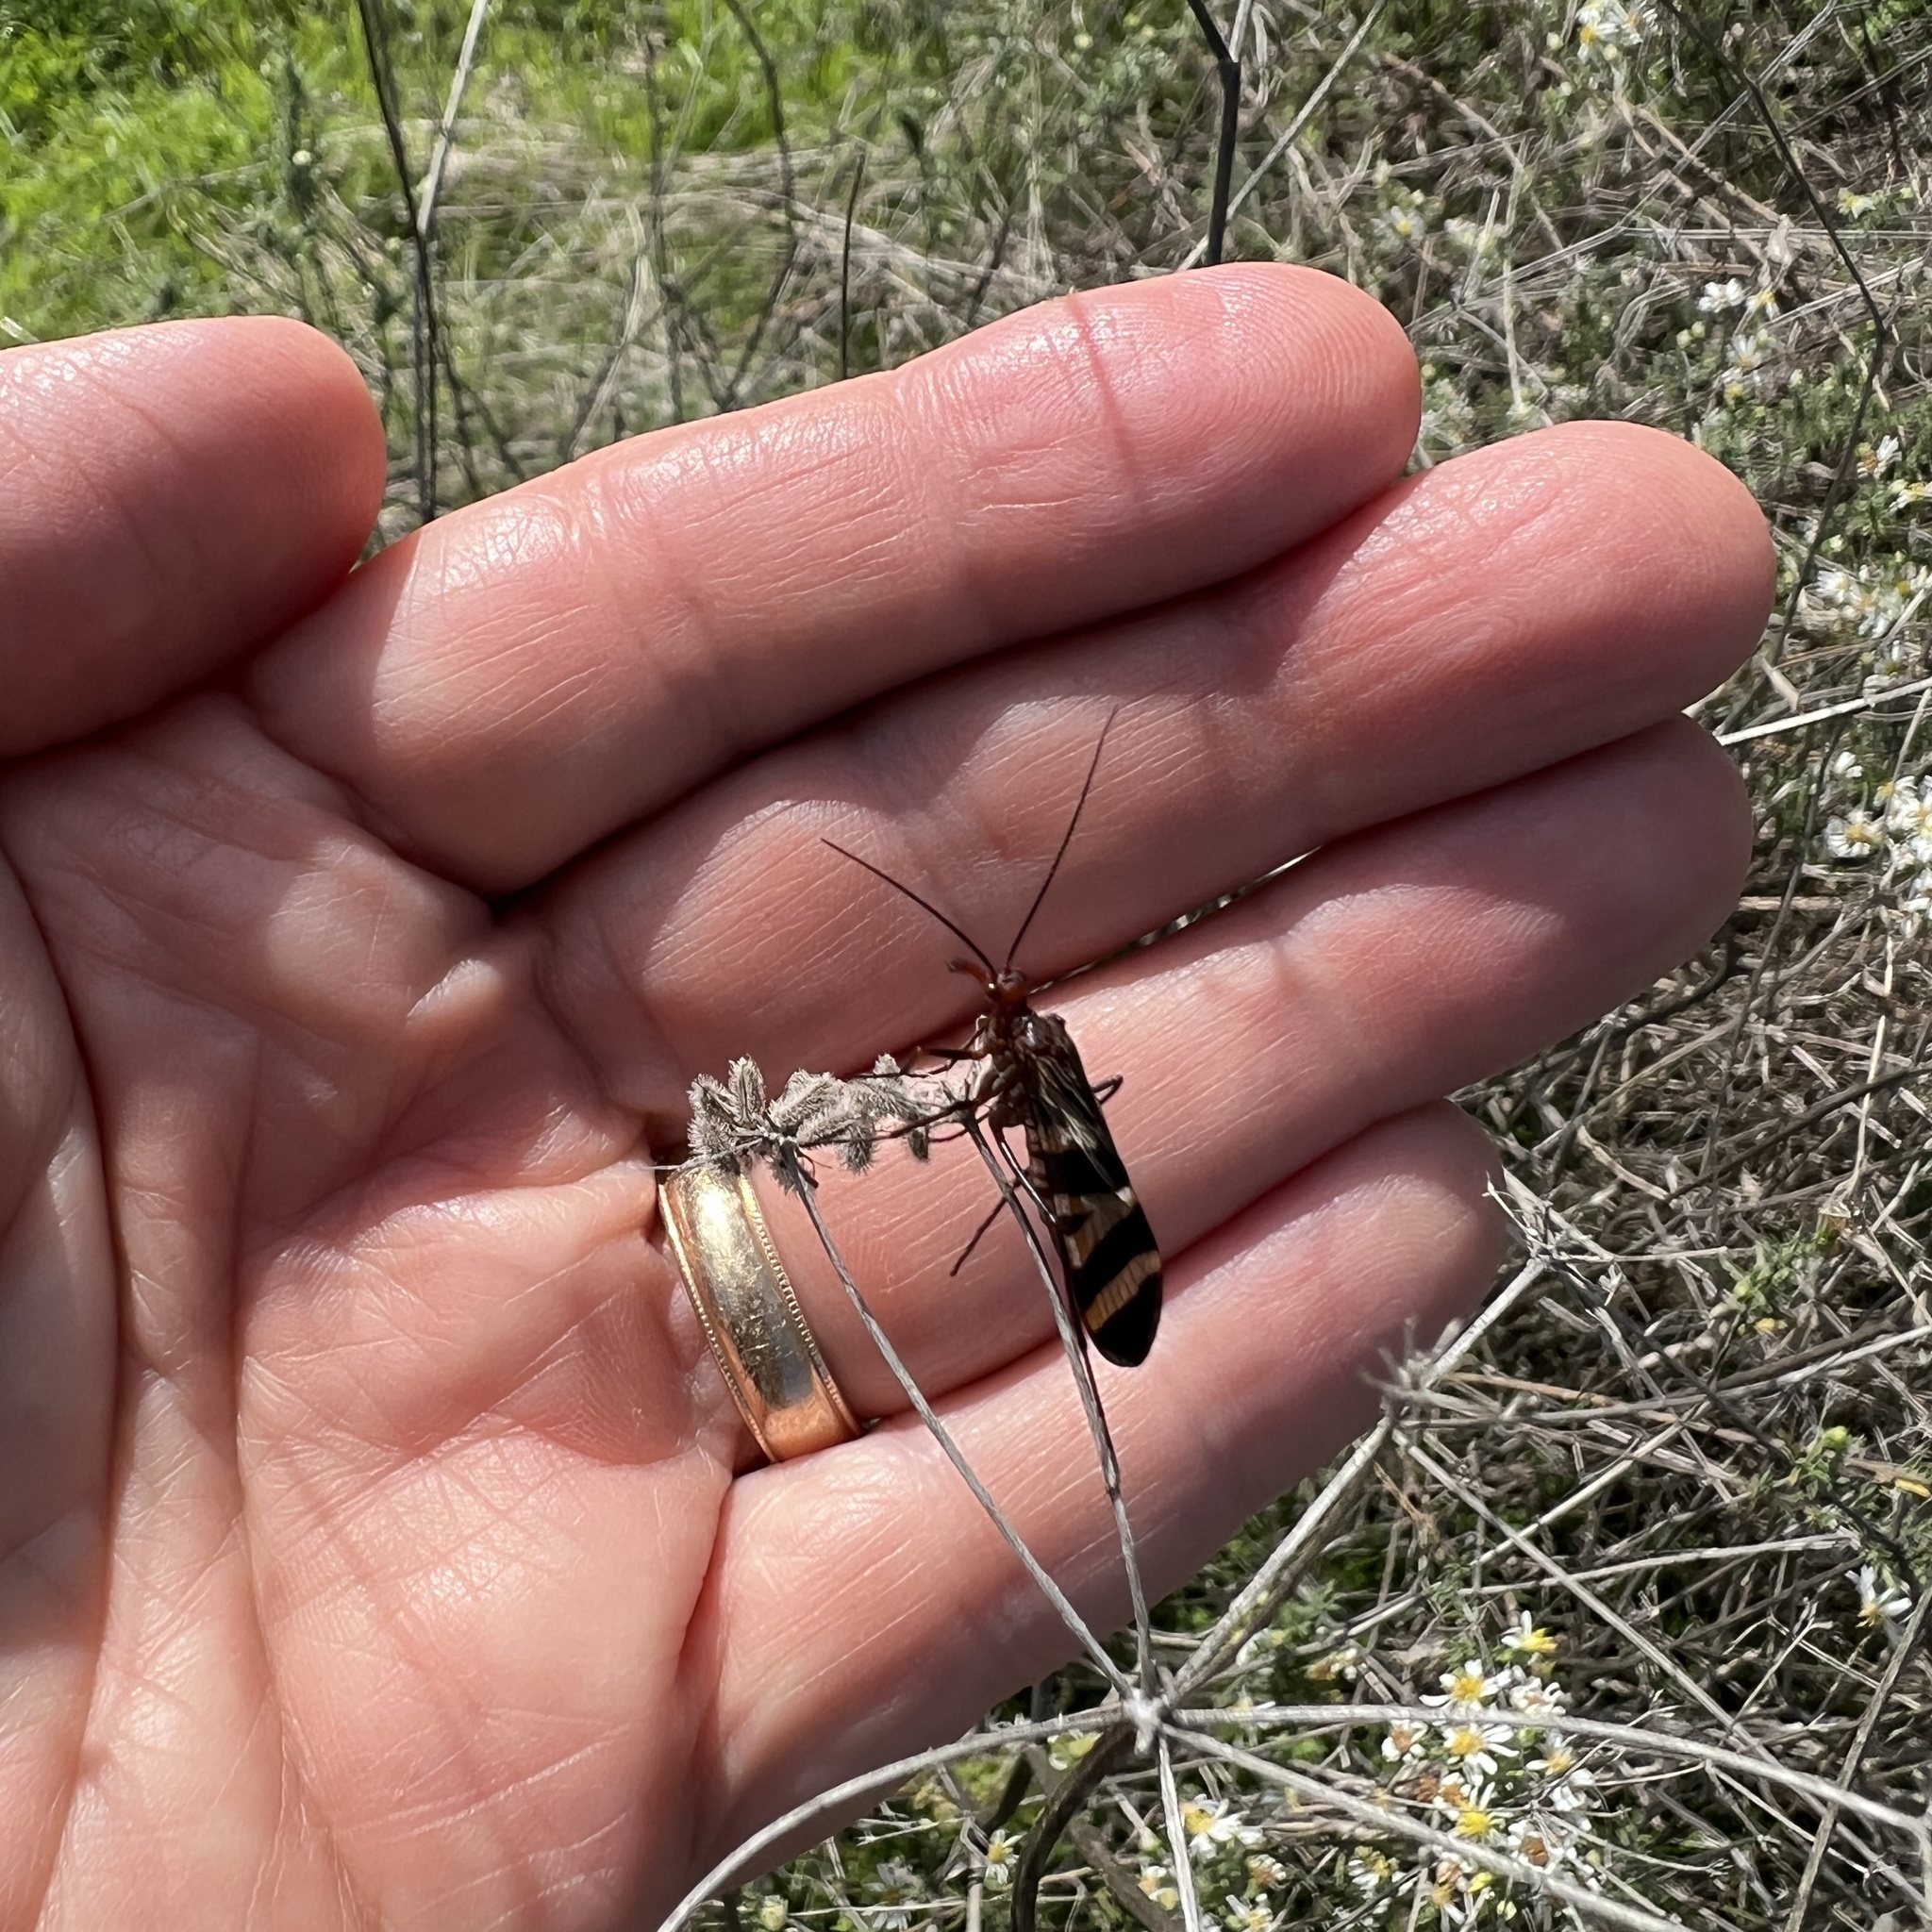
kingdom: Animalia
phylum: Arthropoda
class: Insecta
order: Mecoptera
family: Panorpidae
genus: Panorpa
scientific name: Panorpa nuptialis
